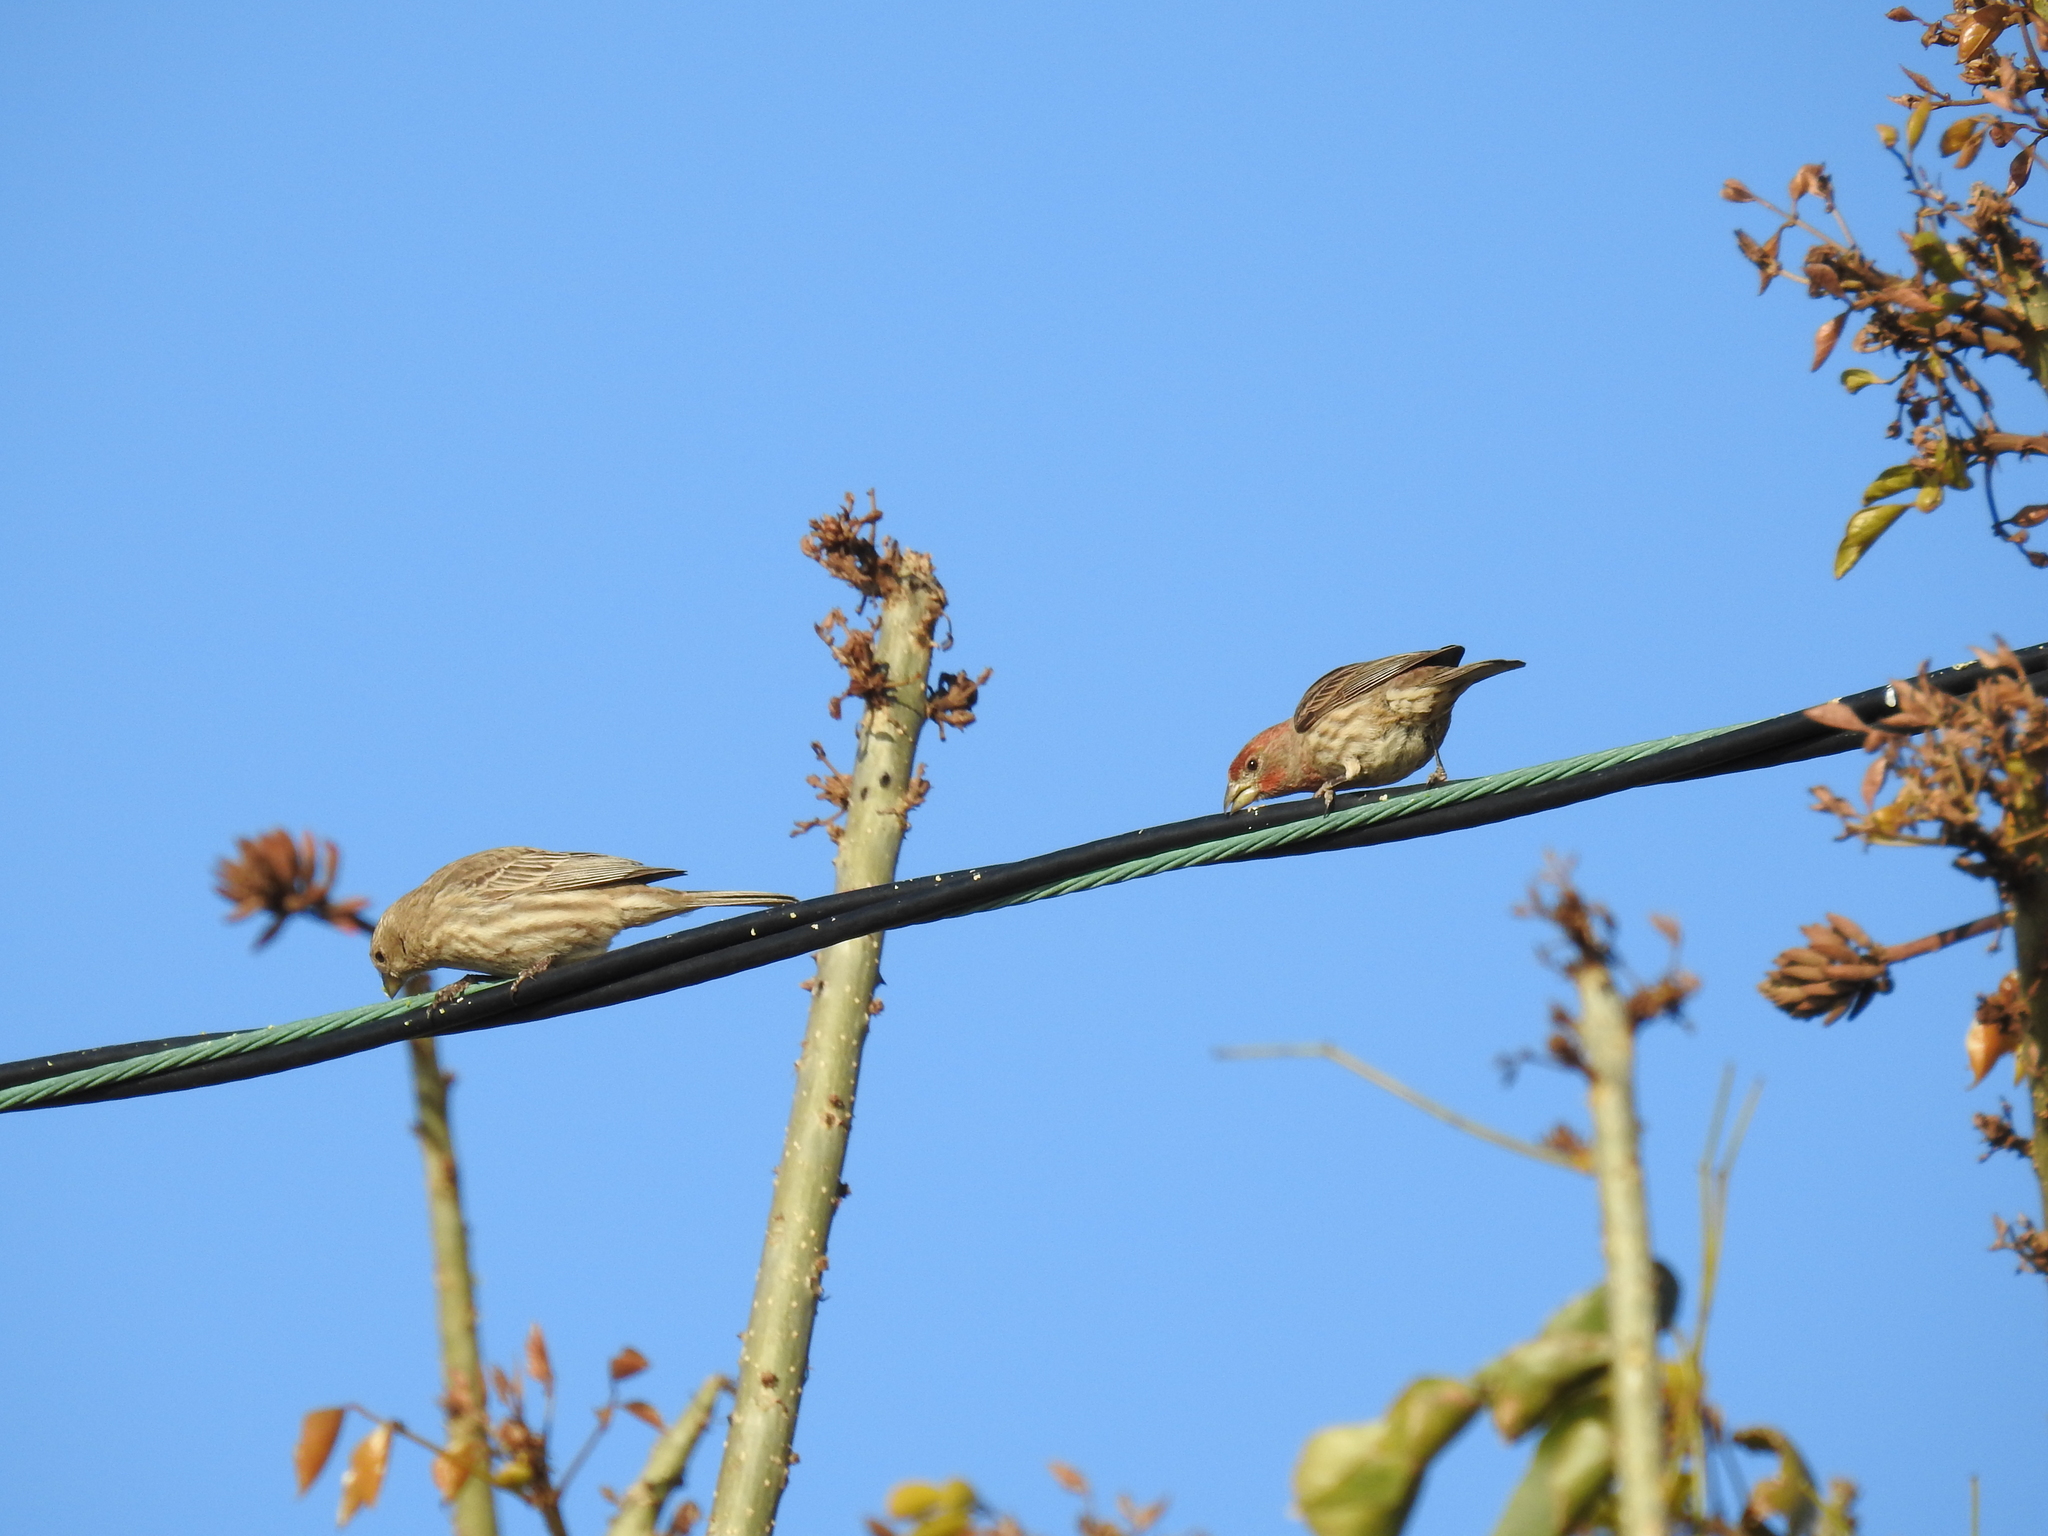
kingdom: Animalia
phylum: Chordata
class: Aves
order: Passeriformes
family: Fringillidae
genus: Haemorhous
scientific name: Haemorhous mexicanus
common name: House finch
